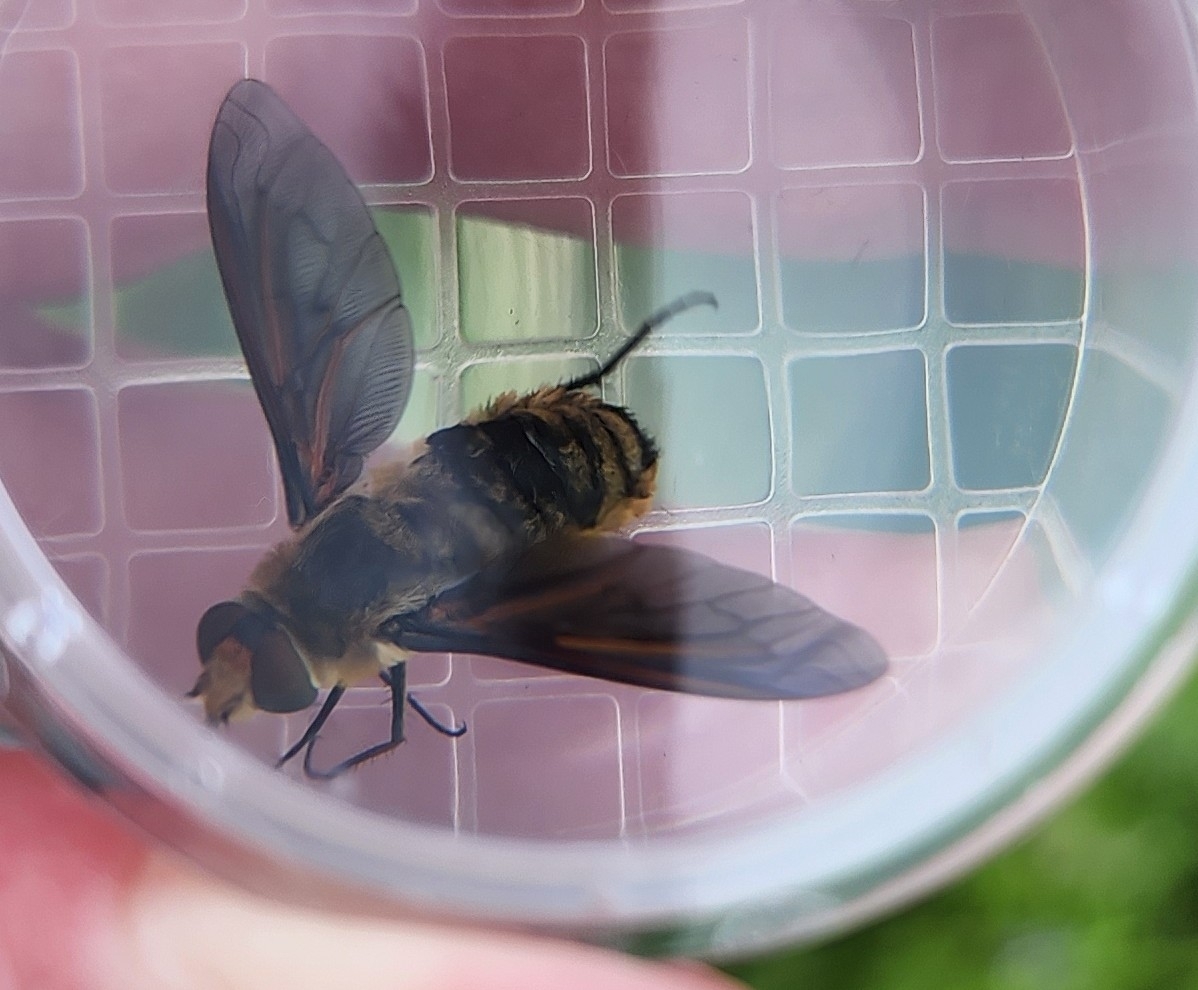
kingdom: Animalia
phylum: Arthropoda
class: Insecta
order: Diptera
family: Bombyliidae
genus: Poecilanthrax
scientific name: Poecilanthrax lucifer
